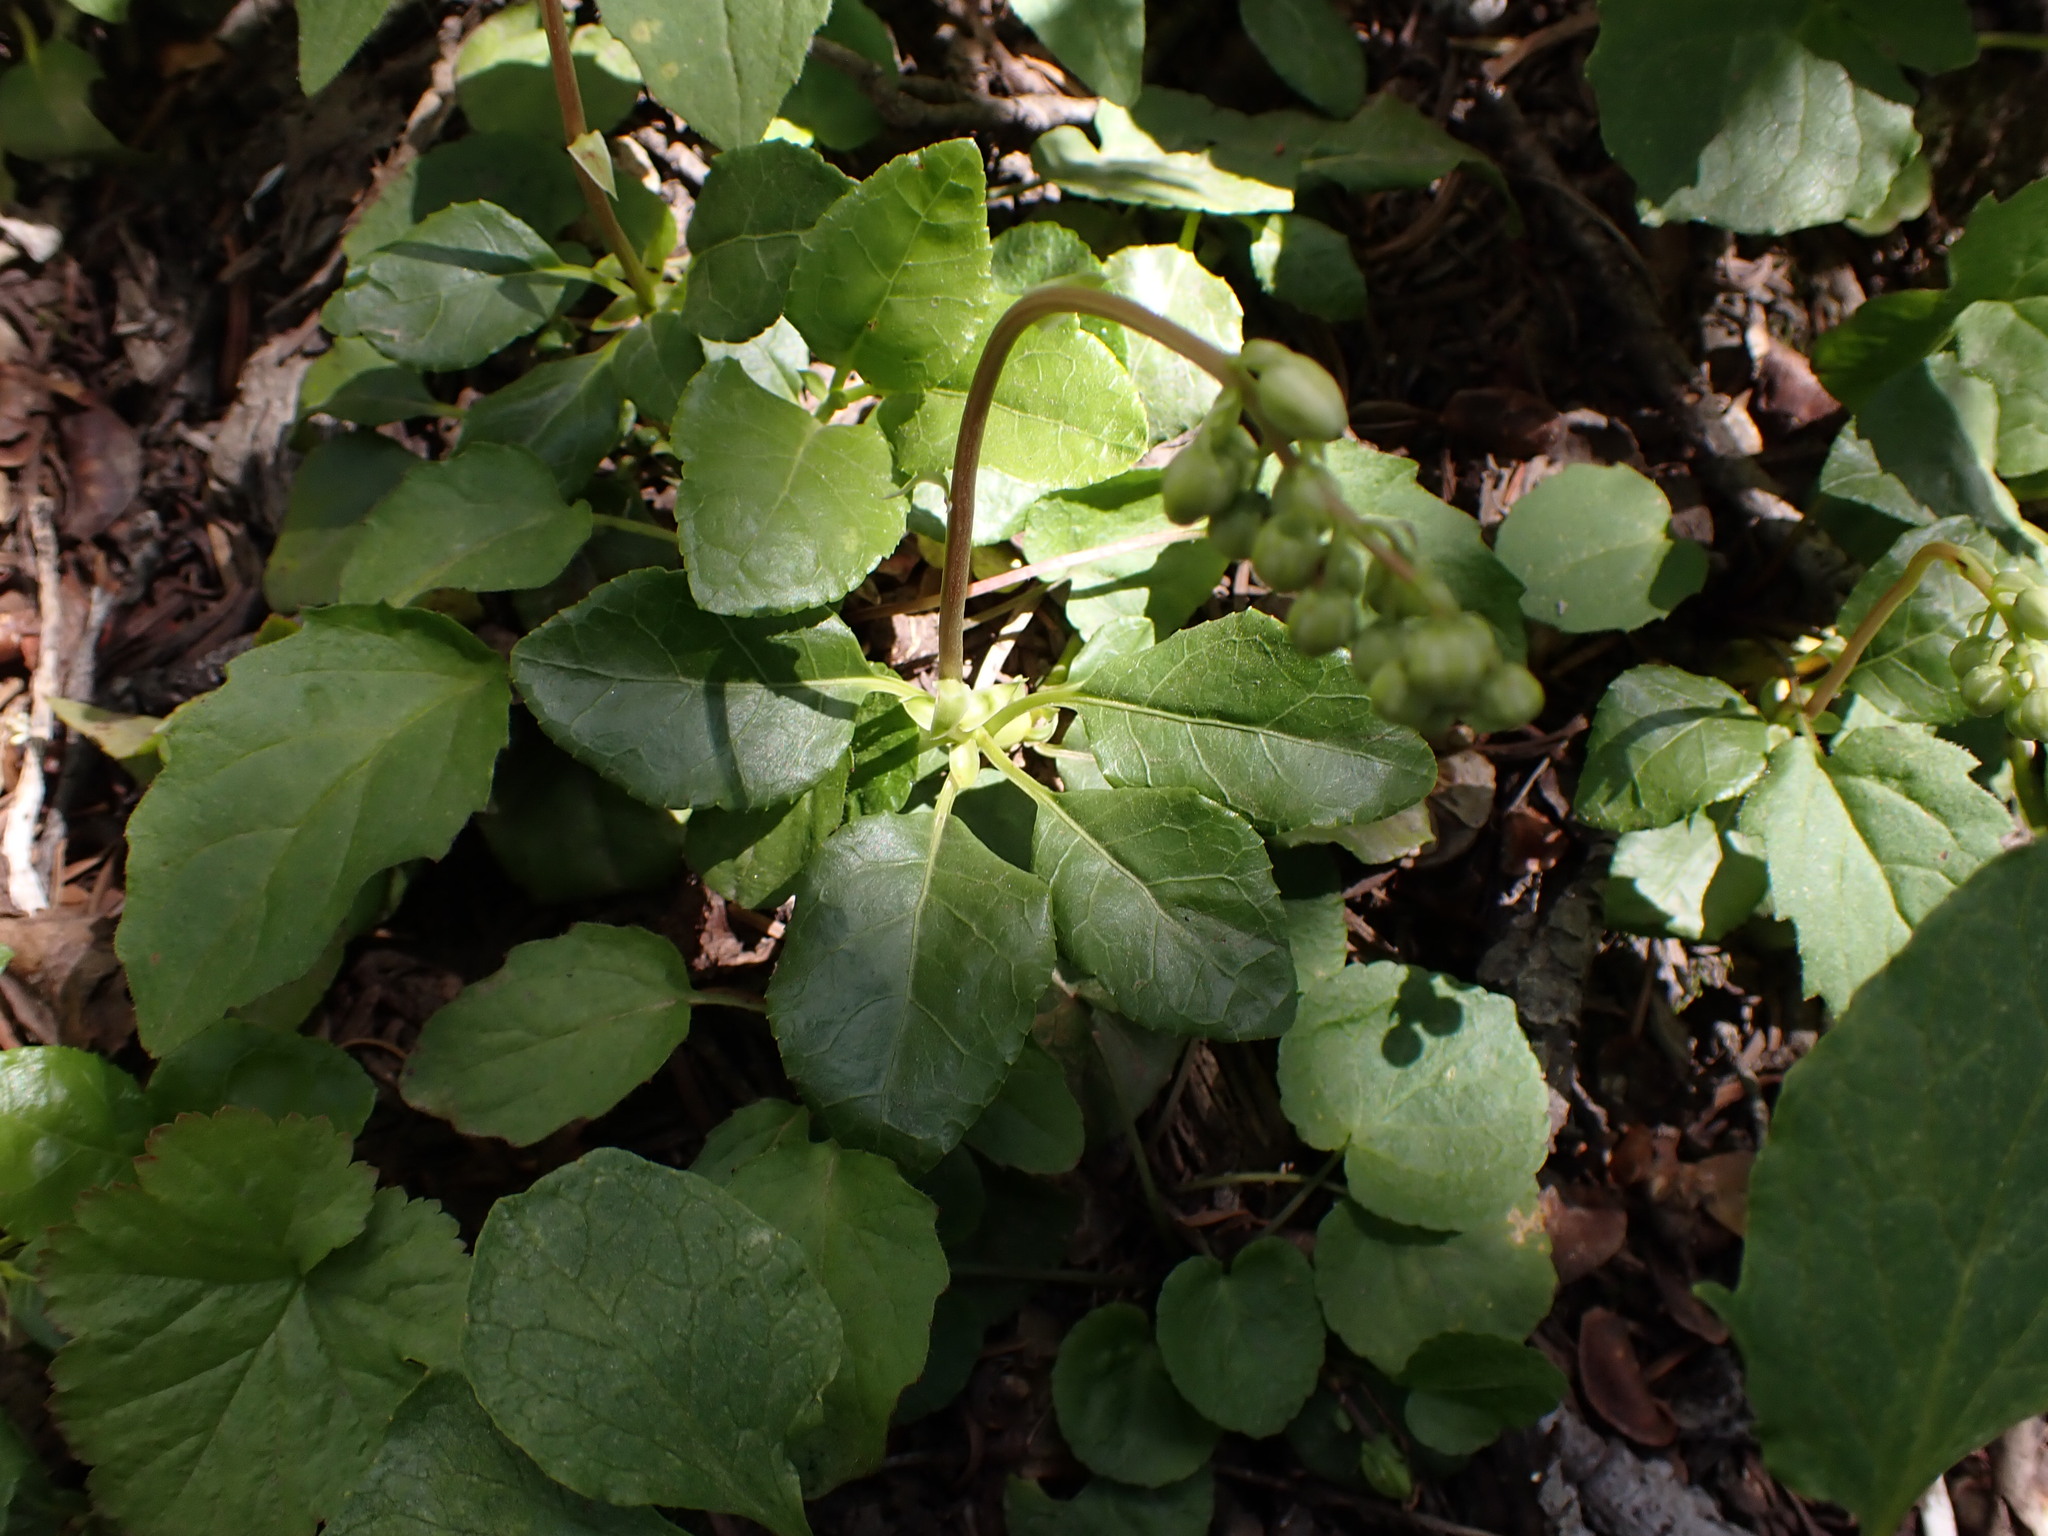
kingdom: Plantae
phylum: Tracheophyta
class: Magnoliopsida
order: Ericales
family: Ericaceae
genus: Orthilia
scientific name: Orthilia secunda
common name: One-sided orthilia
